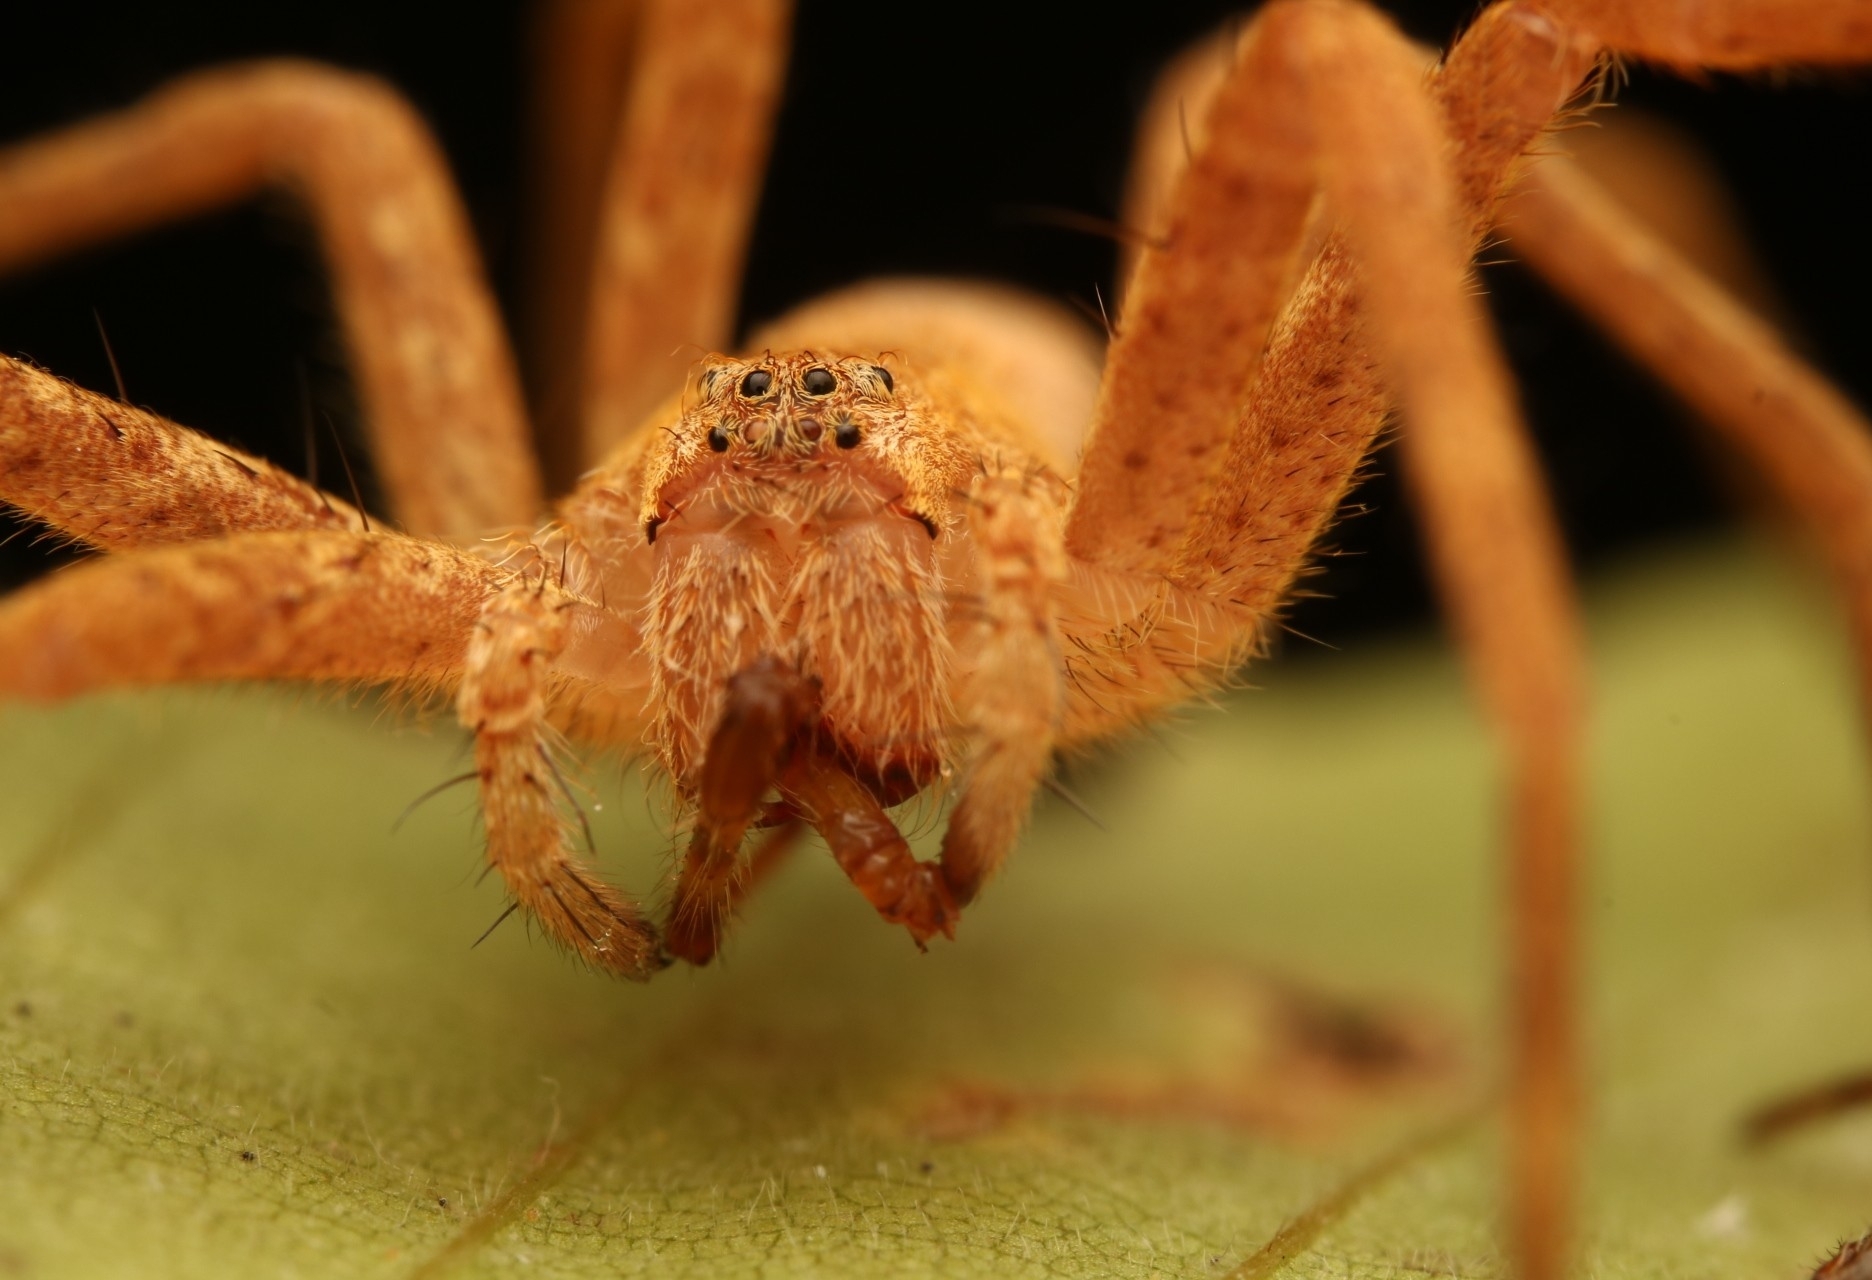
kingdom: Animalia
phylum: Arthropoda
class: Arachnida
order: Araneae
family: Pisauridae
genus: Pisaurina
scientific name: Pisaurina mira
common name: American nursery web spider
